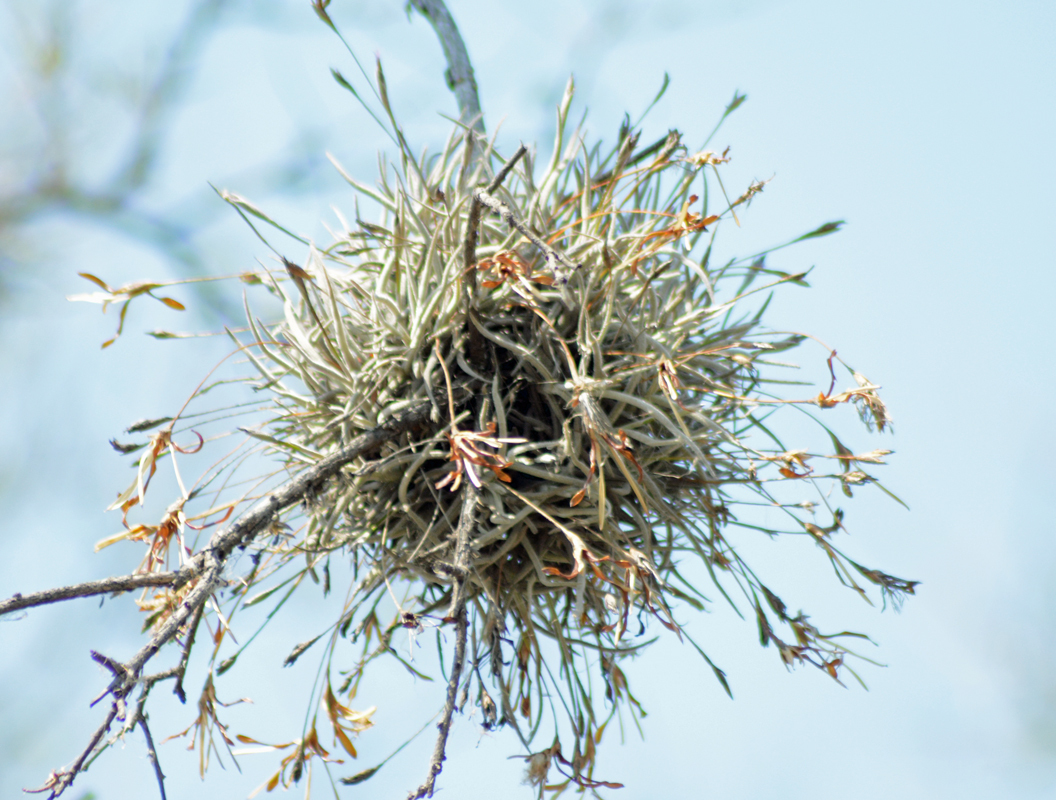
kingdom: Plantae
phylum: Tracheophyta
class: Liliopsida
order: Poales
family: Bromeliaceae
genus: Tillandsia
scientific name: Tillandsia recurvata
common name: Small ballmoss
